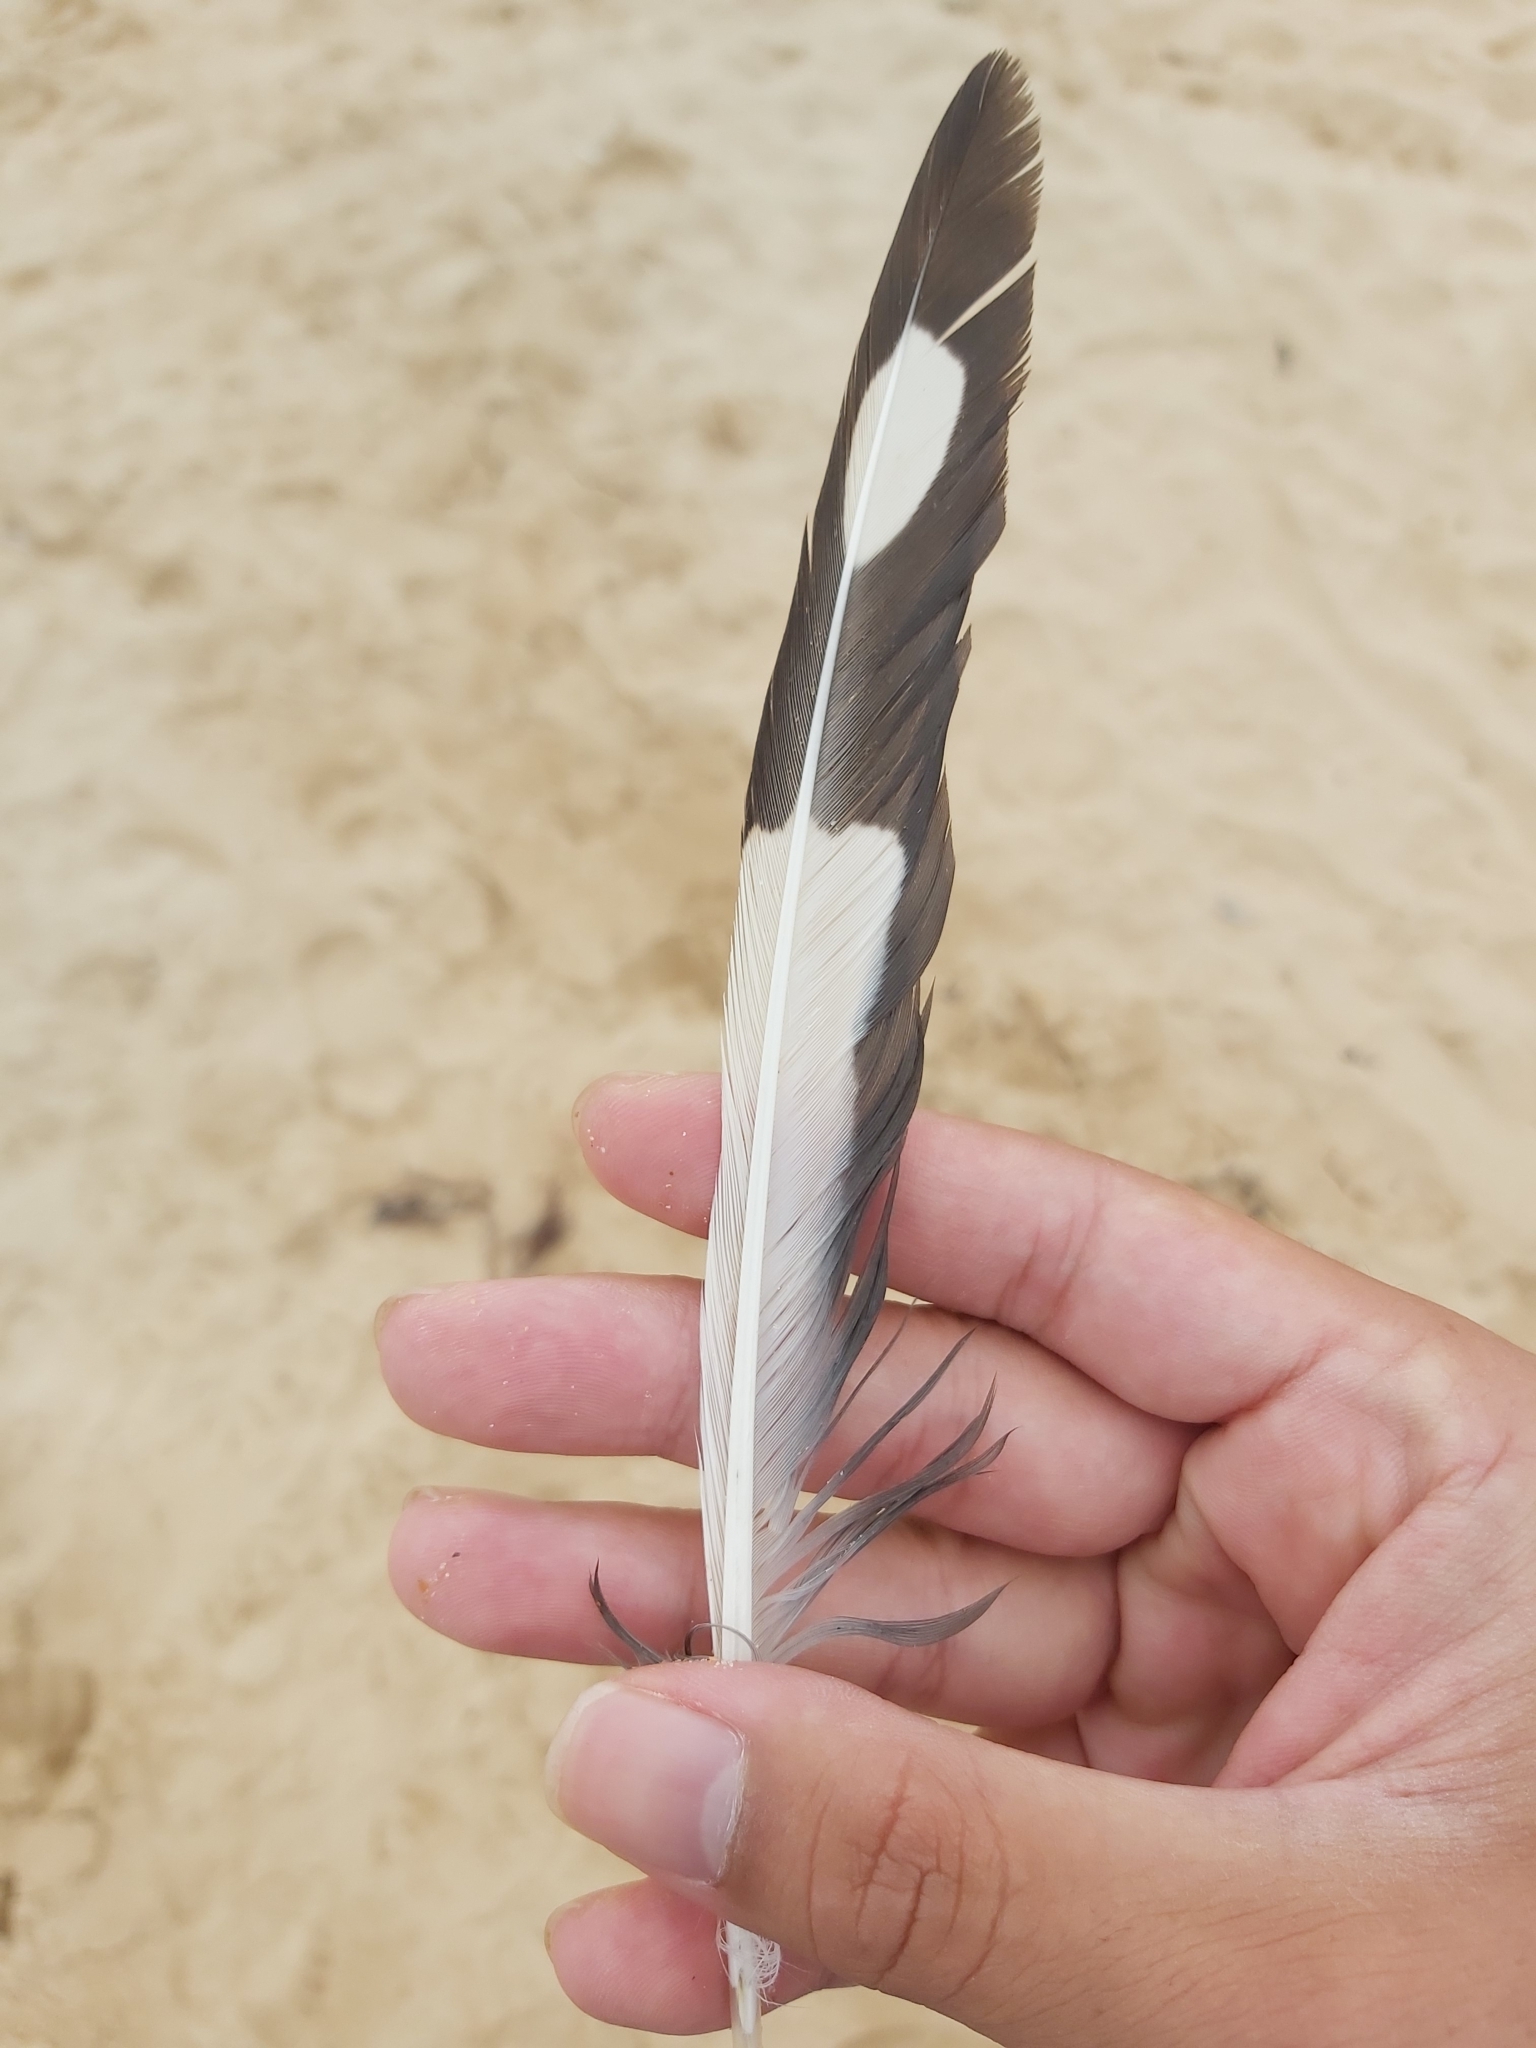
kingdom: Animalia
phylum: Chordata
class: Aves
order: Charadriiformes
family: Laridae
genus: Chroicocephalus
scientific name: Chroicocephalus novaehollandiae
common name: Silver gull
